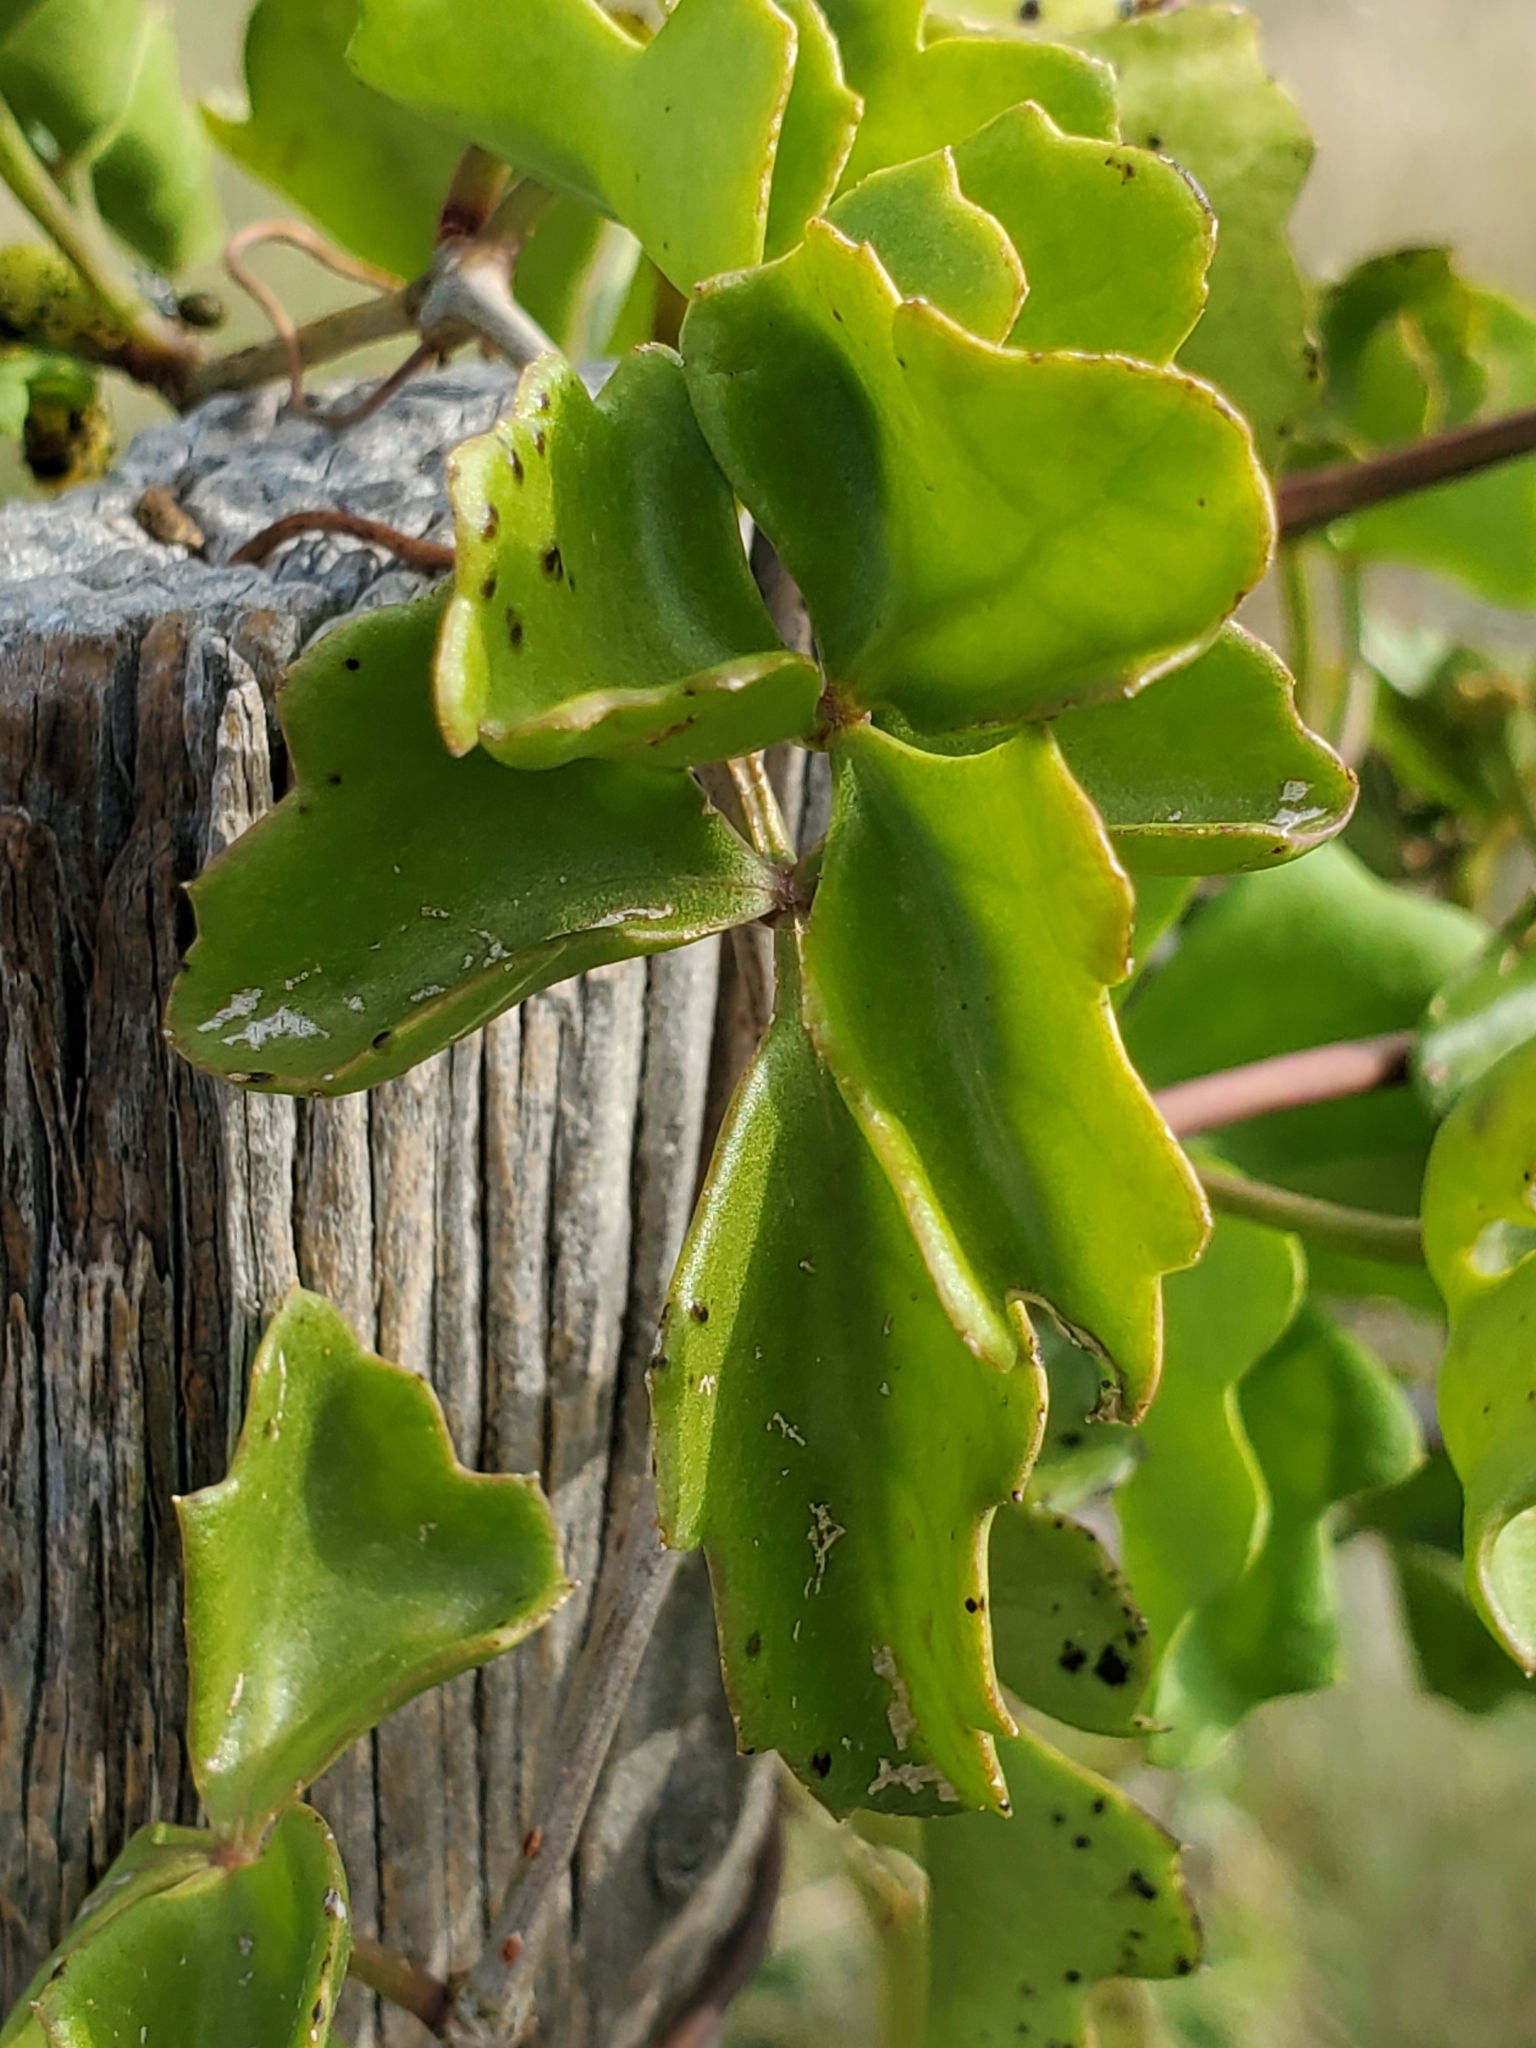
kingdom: Plantae
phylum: Tracheophyta
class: Magnoliopsida
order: Vitales
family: Vitaceae
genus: Cissus
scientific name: Cissus trifoliata
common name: Vine-sorrel
